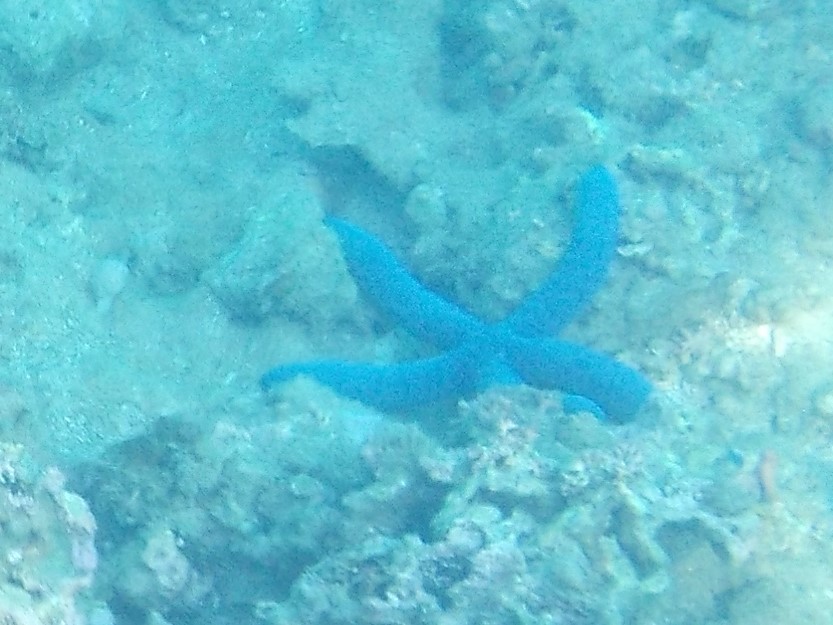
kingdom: Animalia
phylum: Echinodermata
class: Asteroidea
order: Valvatida
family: Ophidiasteridae
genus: Linckia
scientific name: Linckia laevigata
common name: Azure sea star
